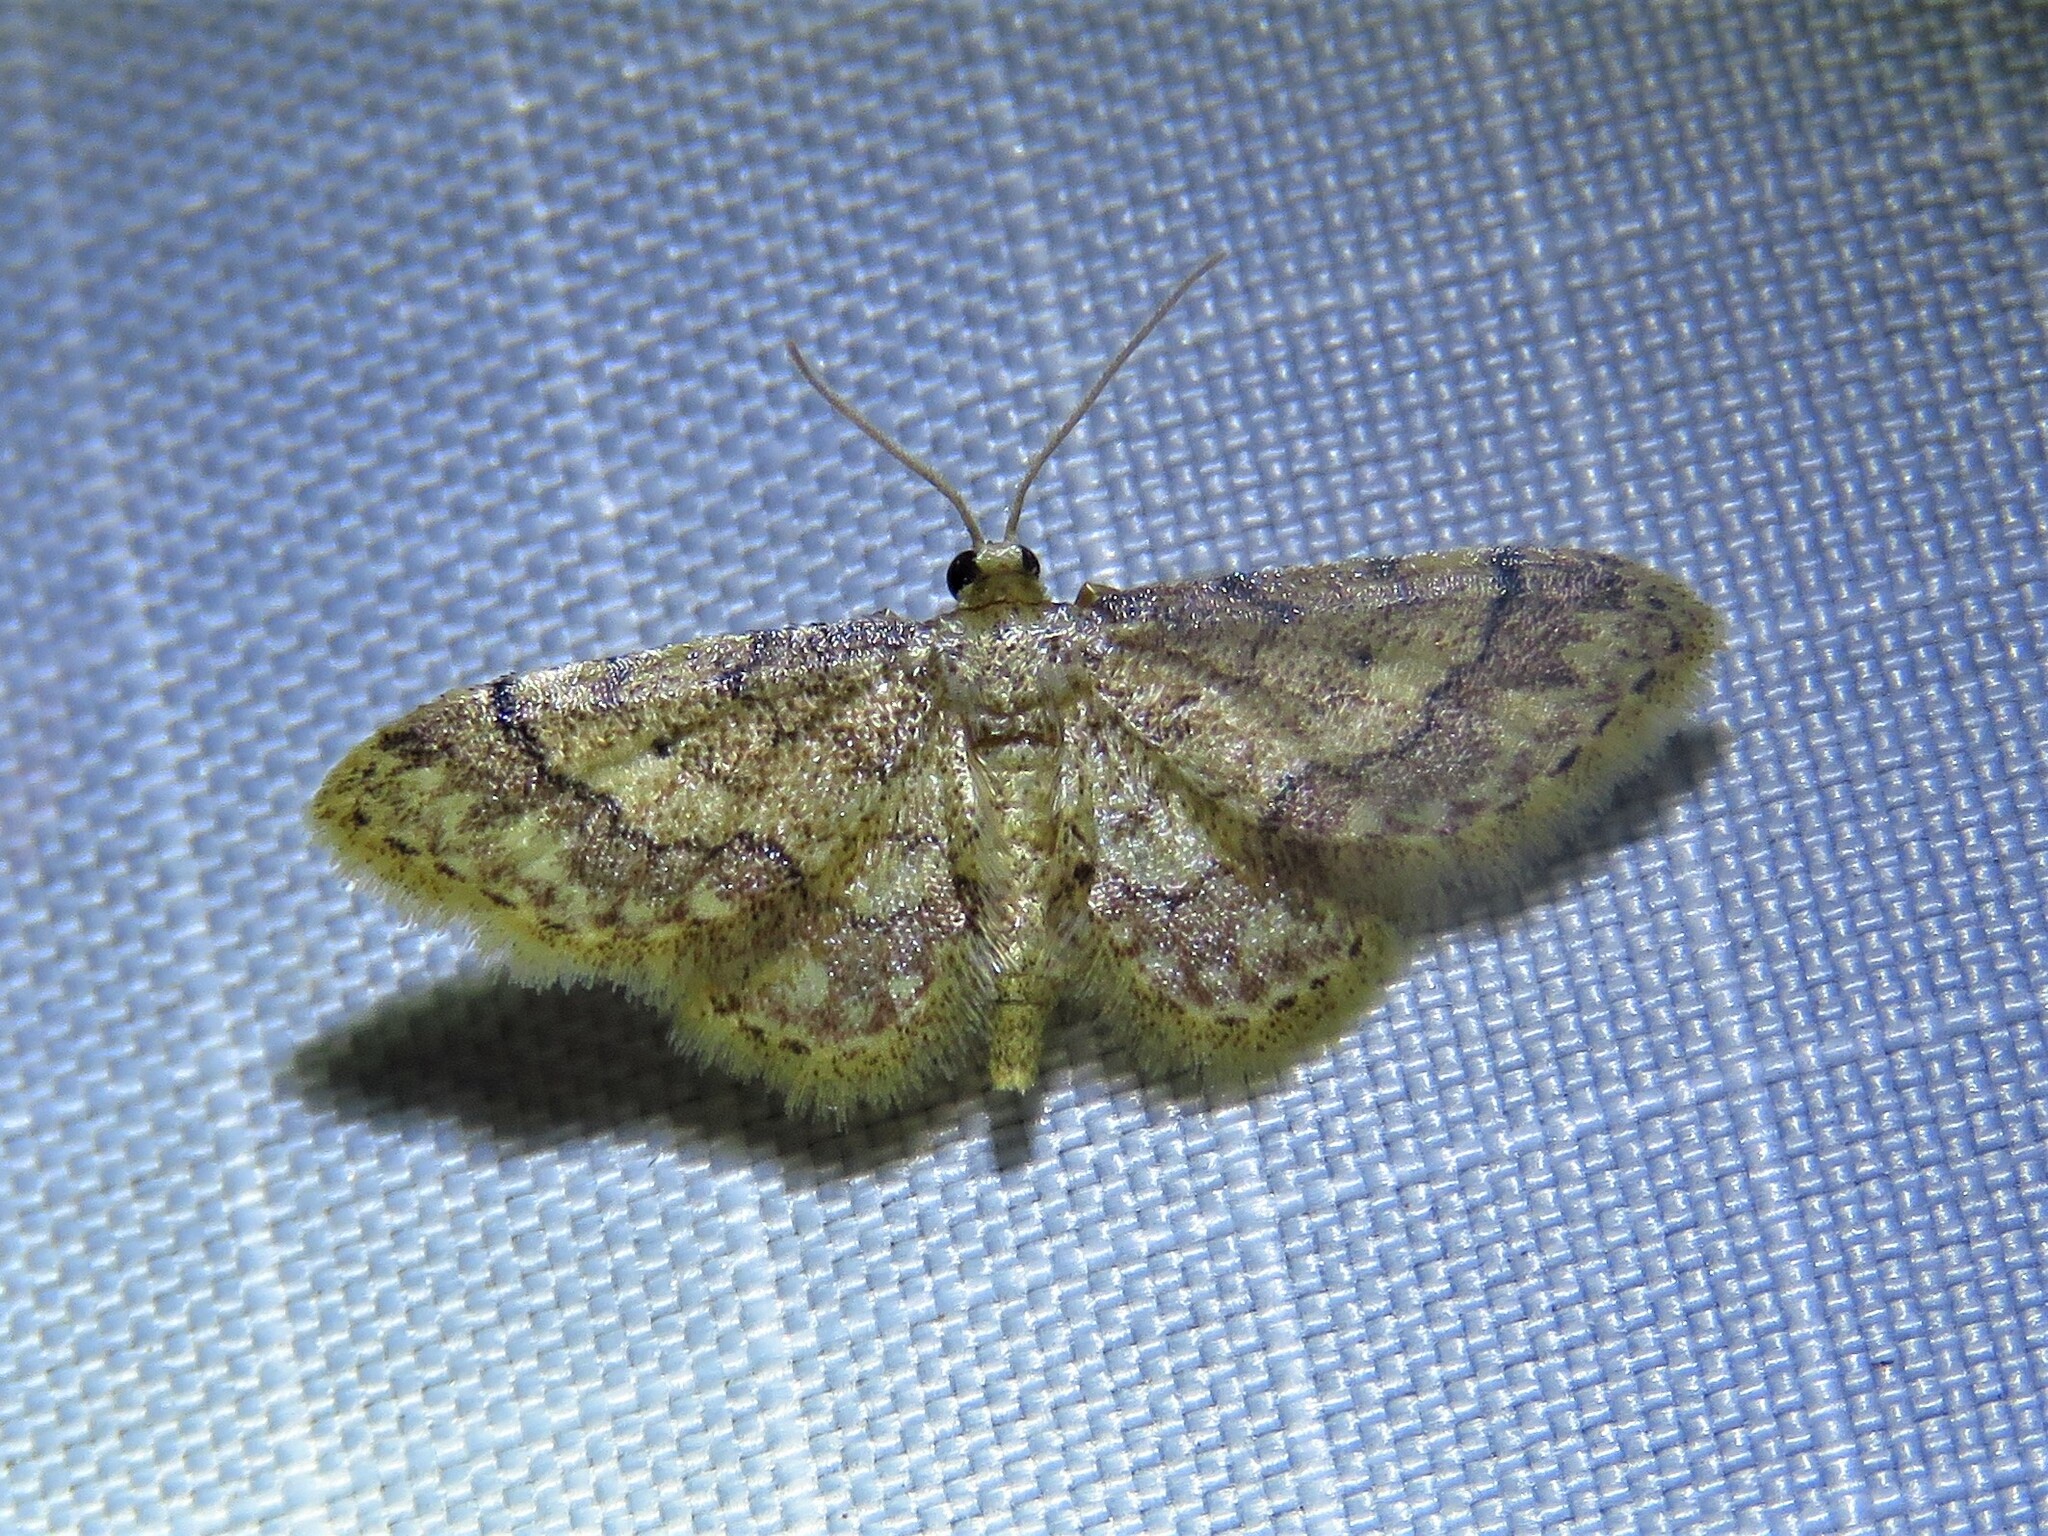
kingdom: Animalia
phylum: Arthropoda
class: Insecta
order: Lepidoptera
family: Geometridae
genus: Idaea
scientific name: Idaea celtima
